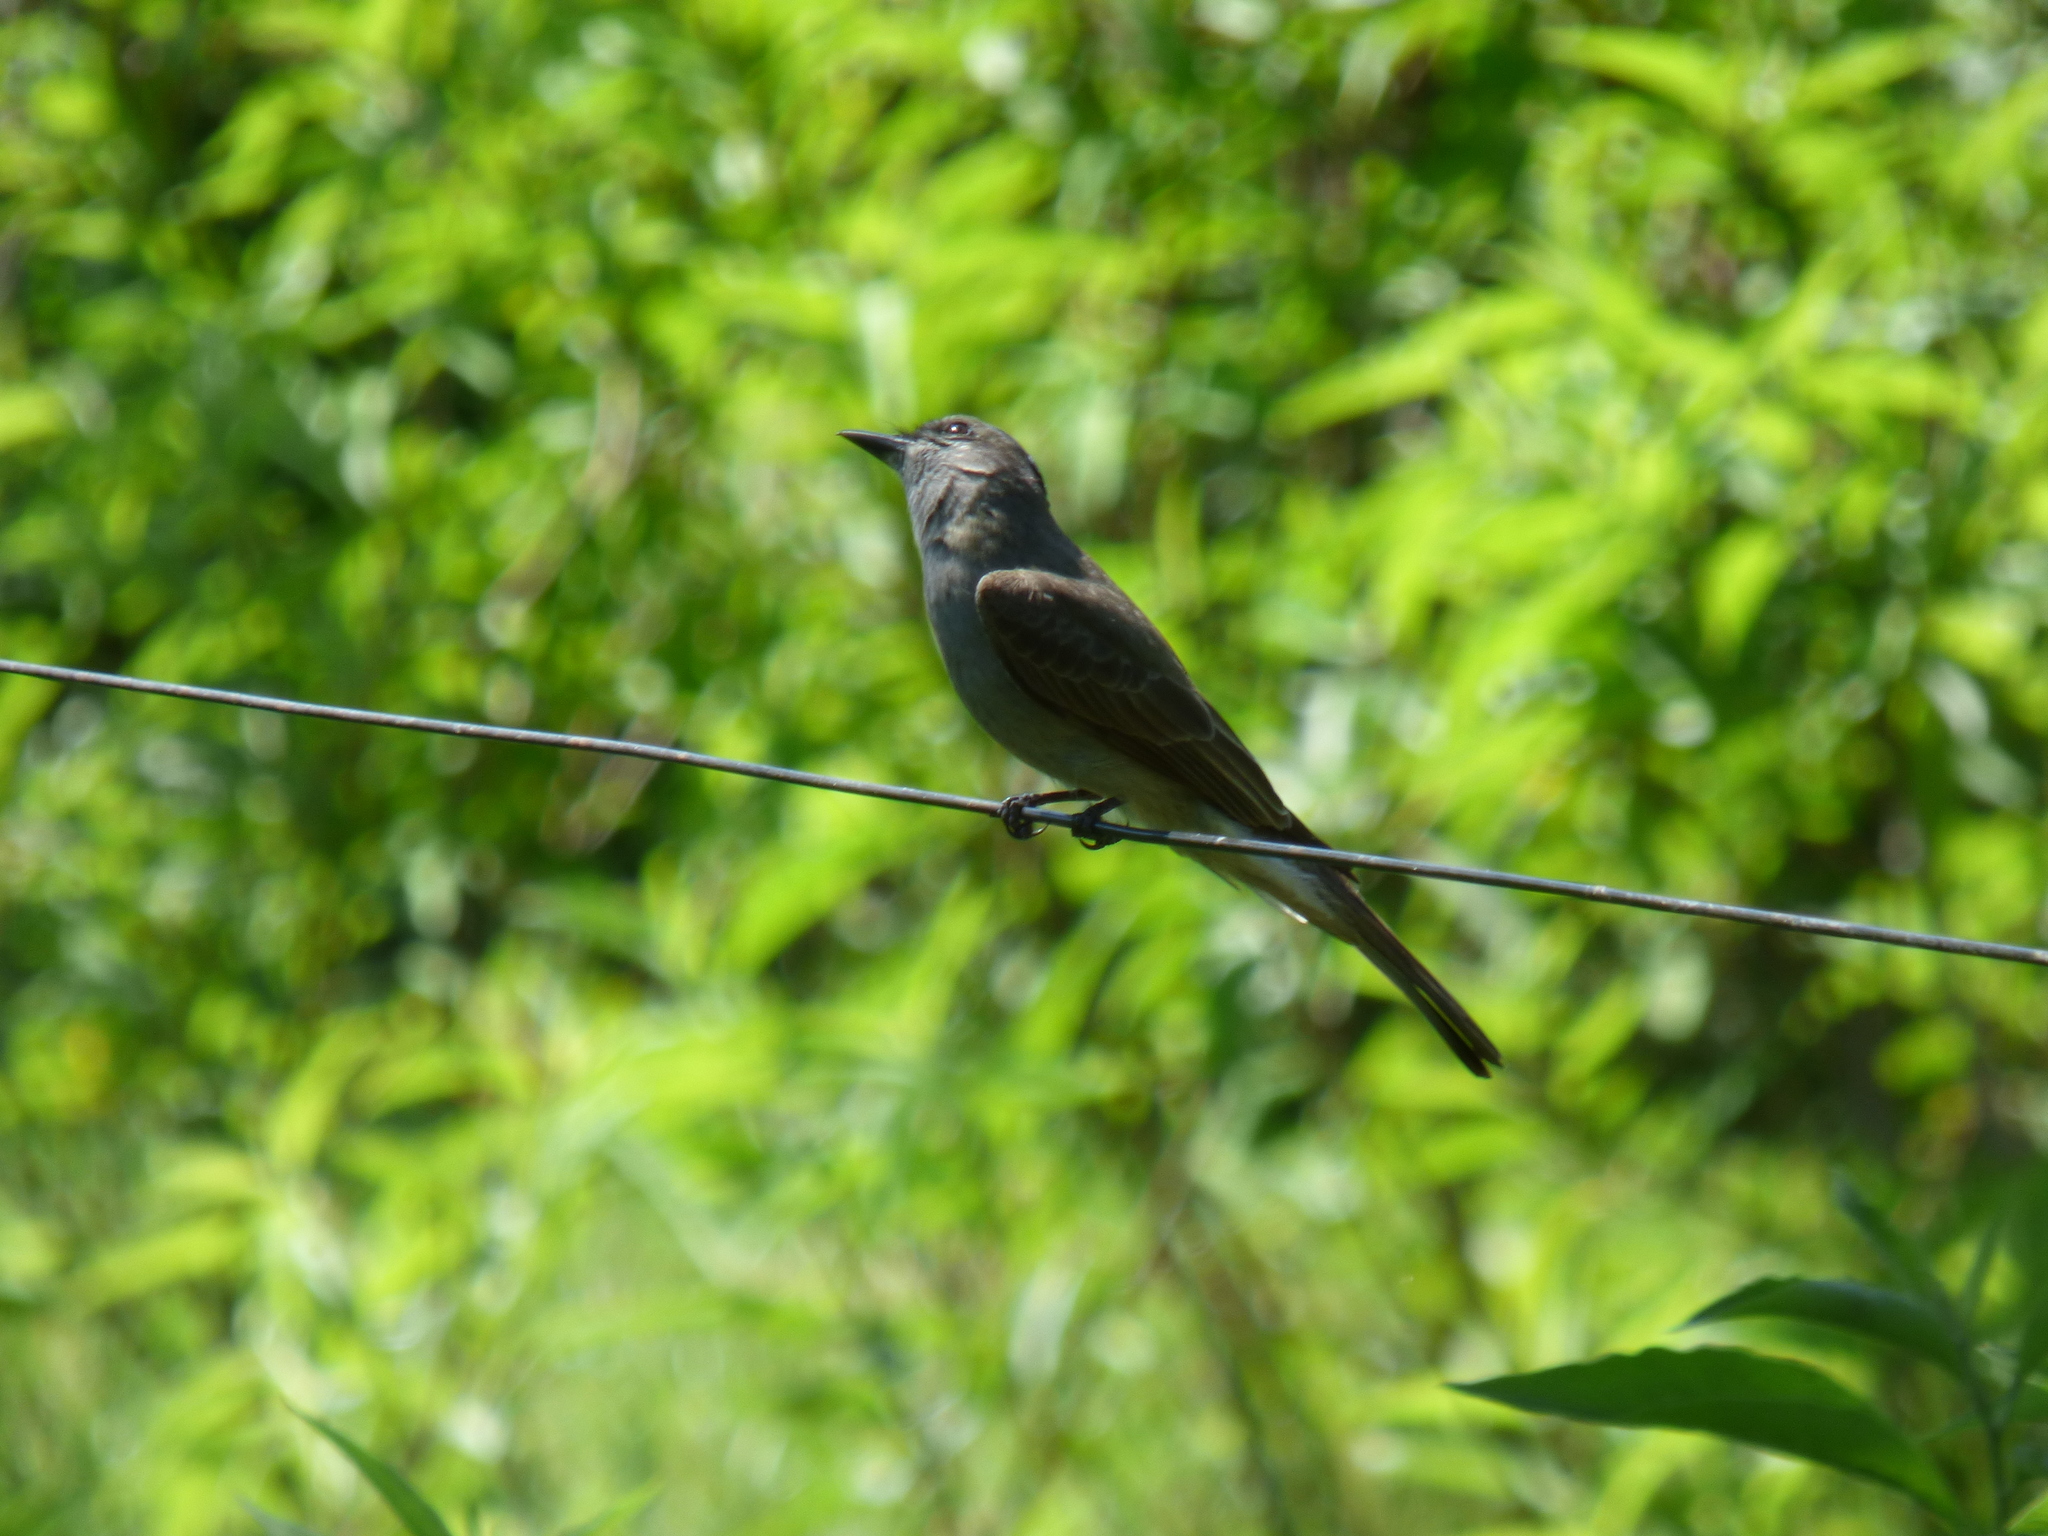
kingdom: Animalia
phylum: Chordata
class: Aves
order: Passeriformes
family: Tyrannidae
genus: Empidonomus
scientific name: Empidonomus aurantioatrocristatus
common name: Crowned slaty flycatcher
